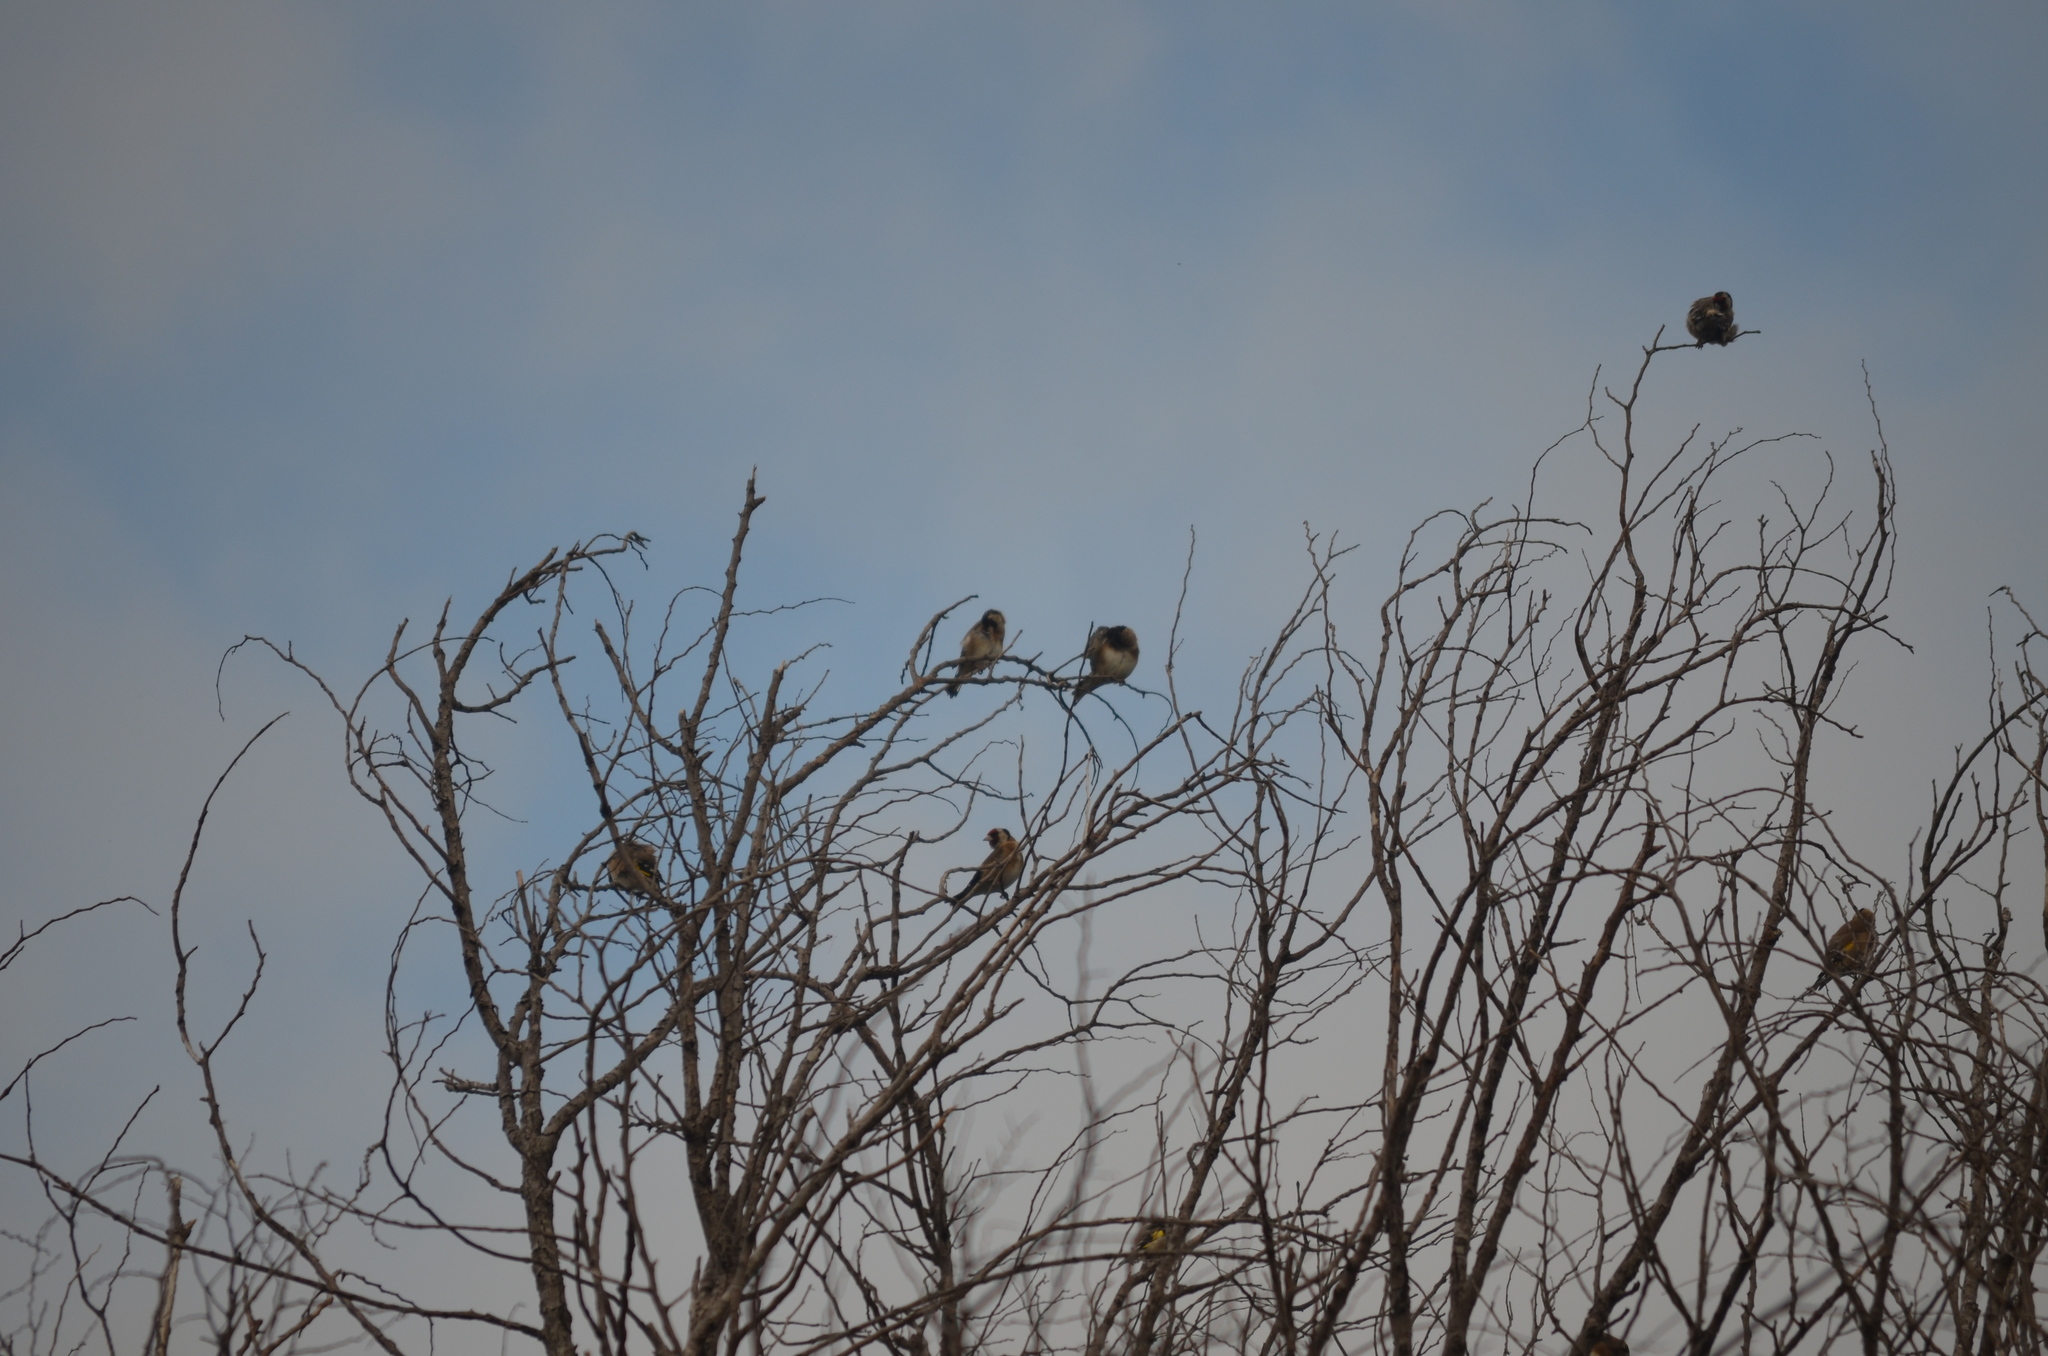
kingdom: Animalia
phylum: Chordata
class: Aves
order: Passeriformes
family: Fringillidae
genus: Carduelis
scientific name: Carduelis carduelis
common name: European goldfinch
